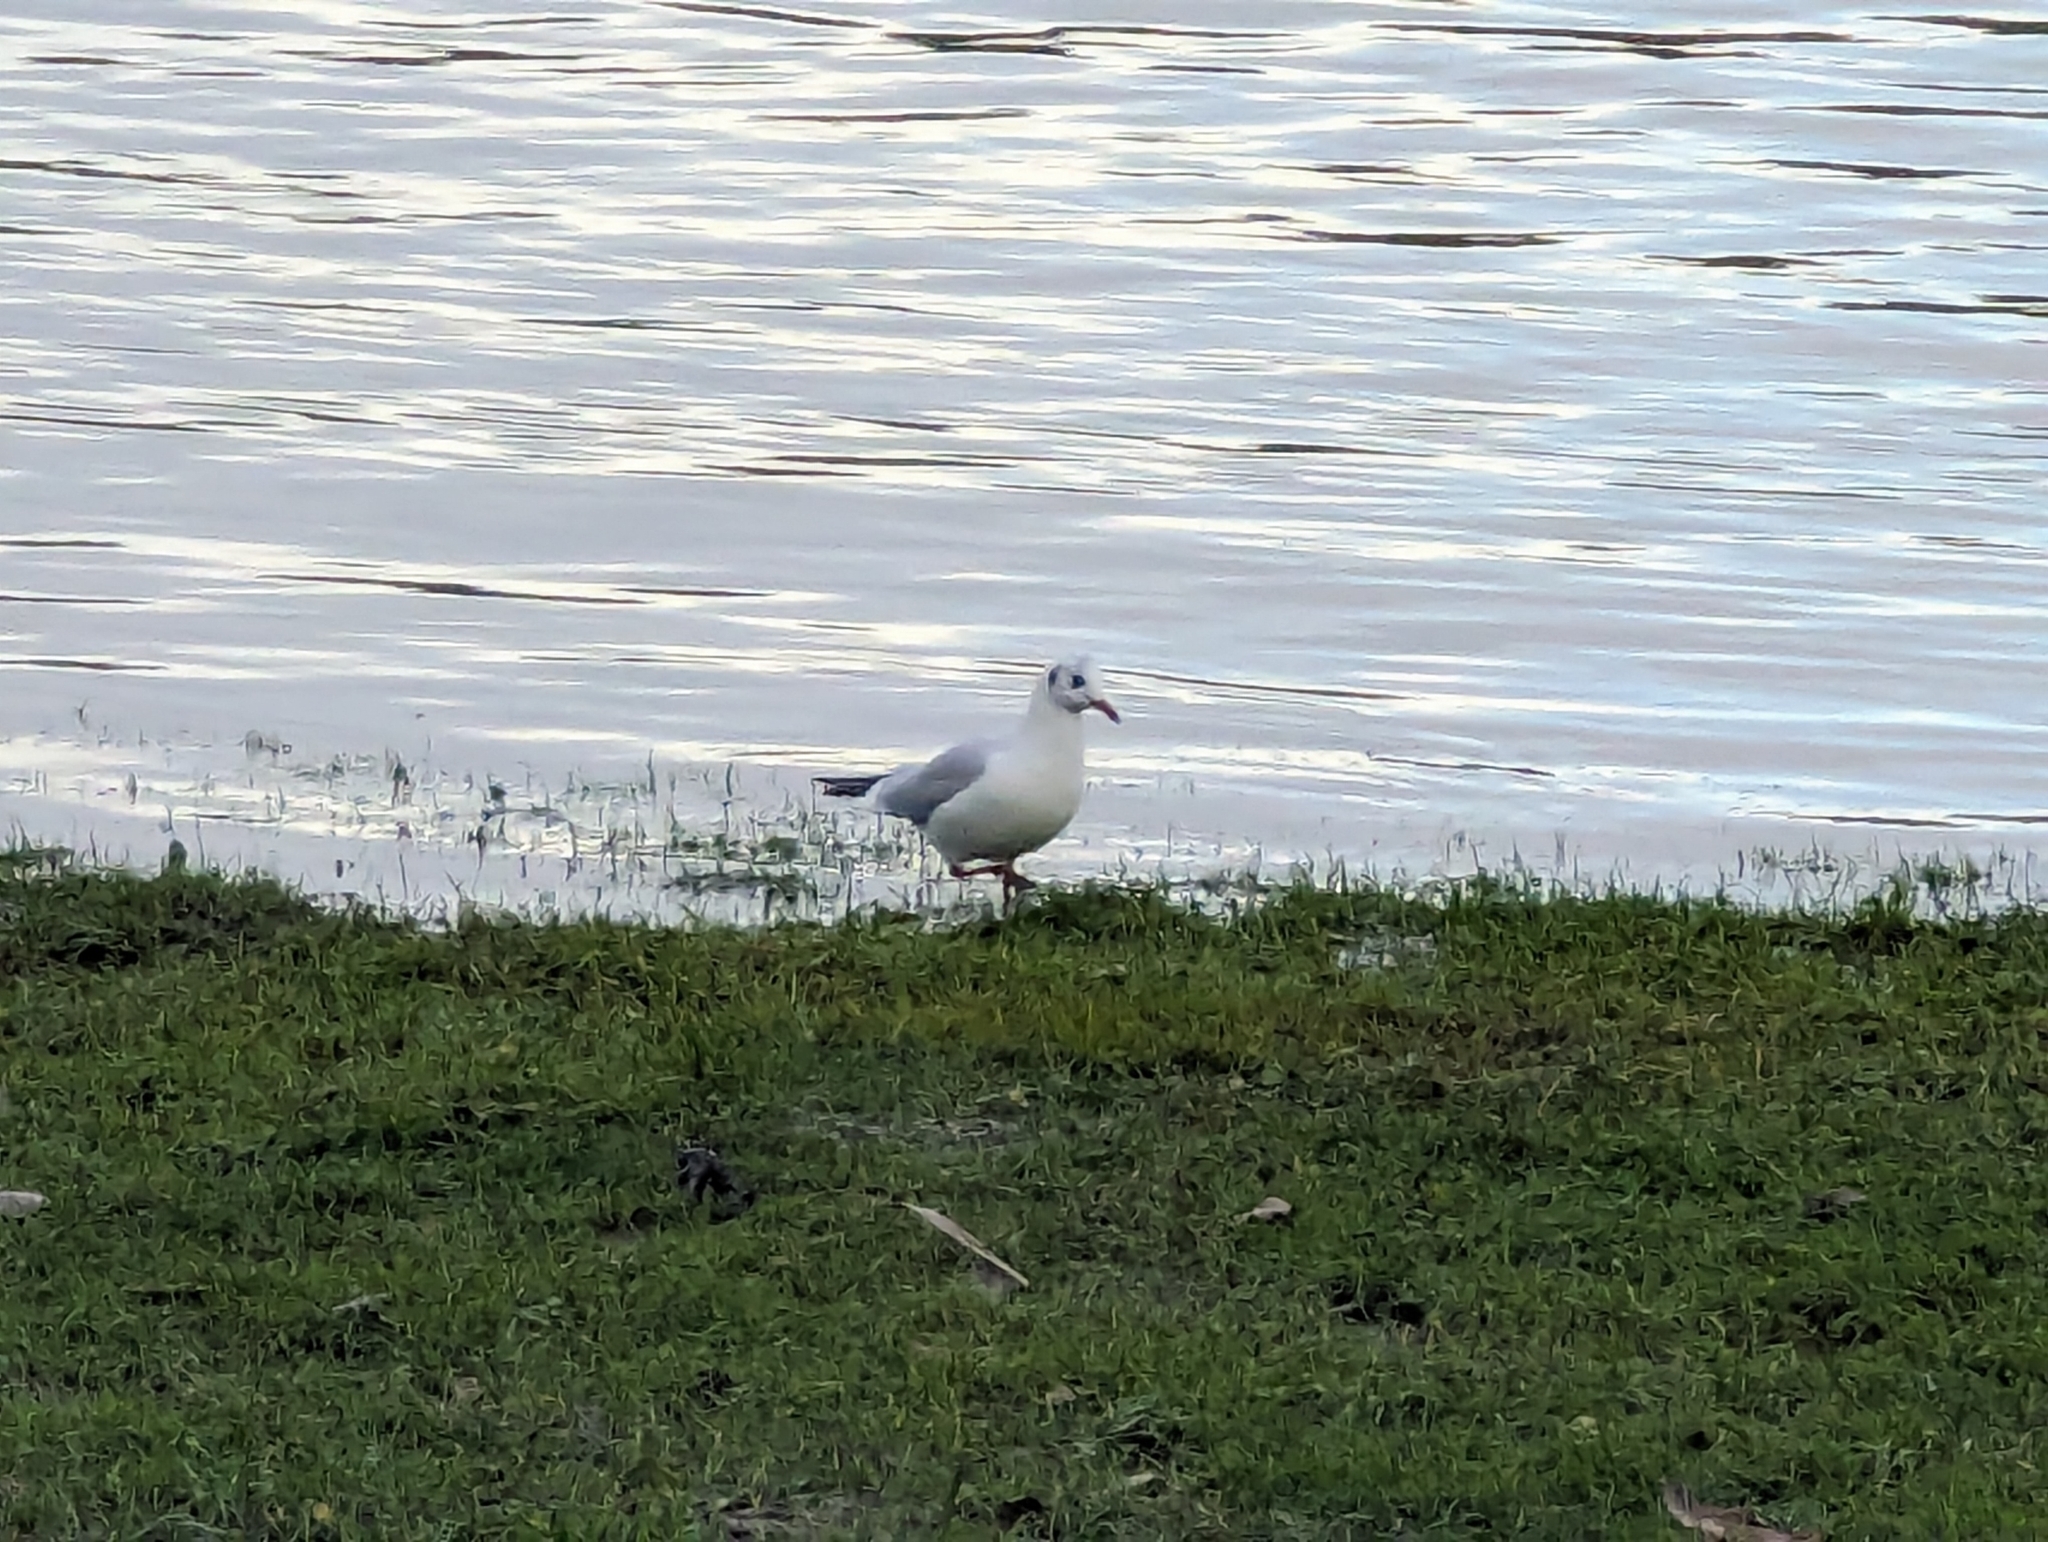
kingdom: Animalia
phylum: Chordata
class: Aves
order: Charadriiformes
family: Laridae
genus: Chroicocephalus
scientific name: Chroicocephalus ridibundus
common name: Black-headed gull
